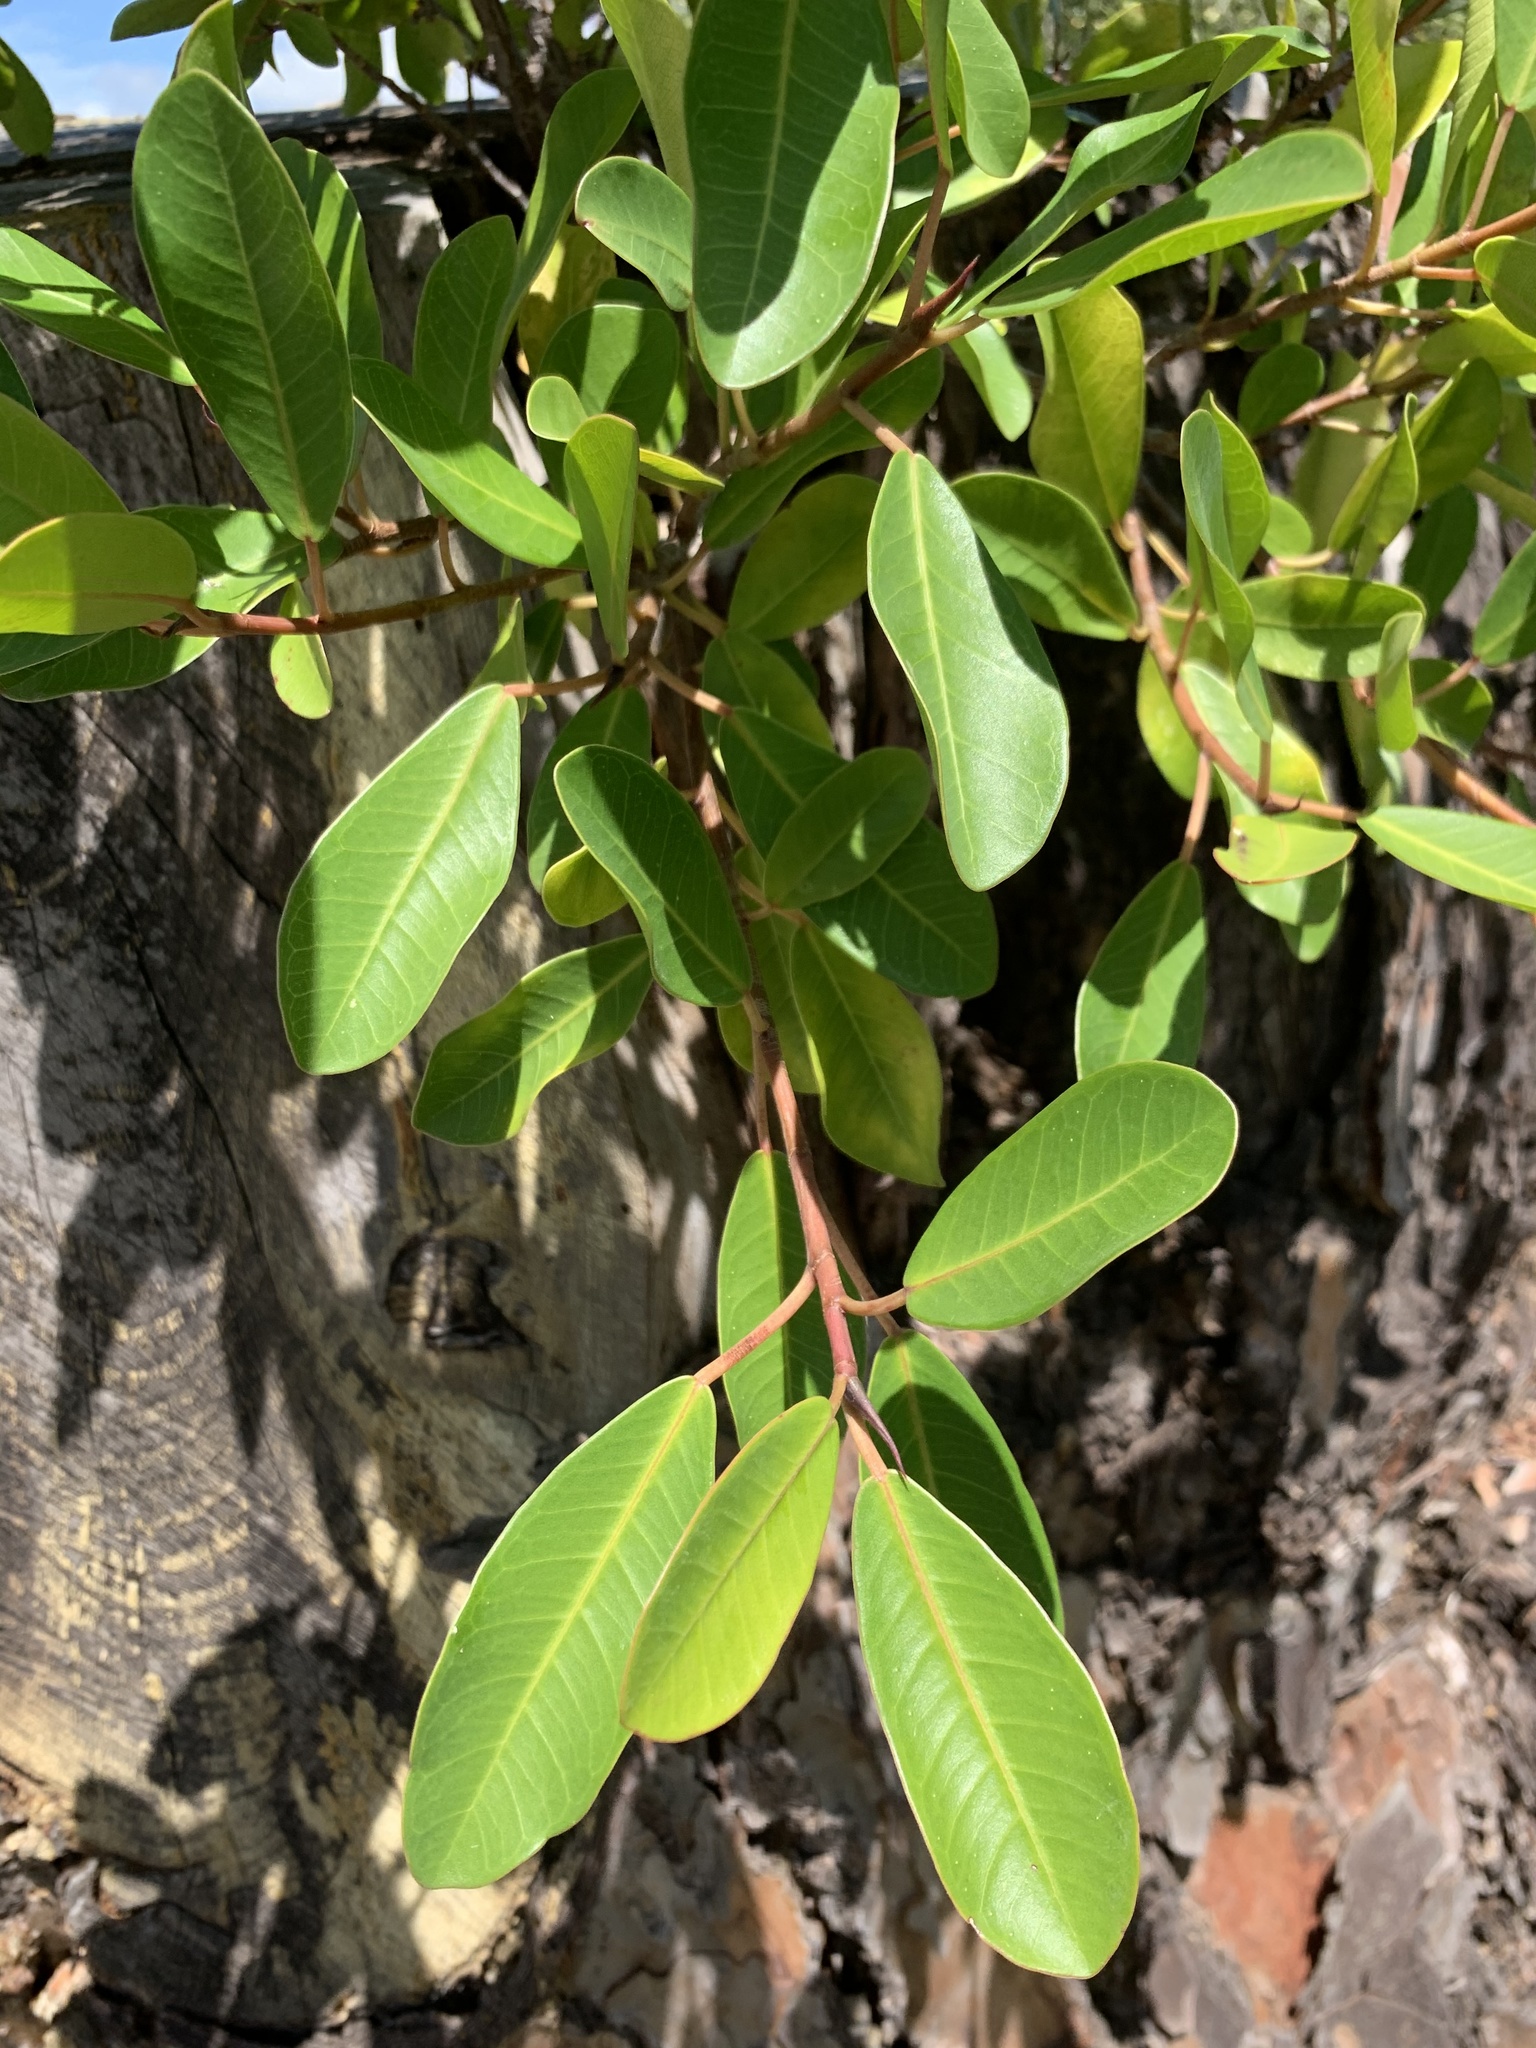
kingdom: Plantae
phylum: Tracheophyta
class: Magnoliopsida
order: Rosales
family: Moraceae
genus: Ficus
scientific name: Ficus thonningii
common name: Fig
